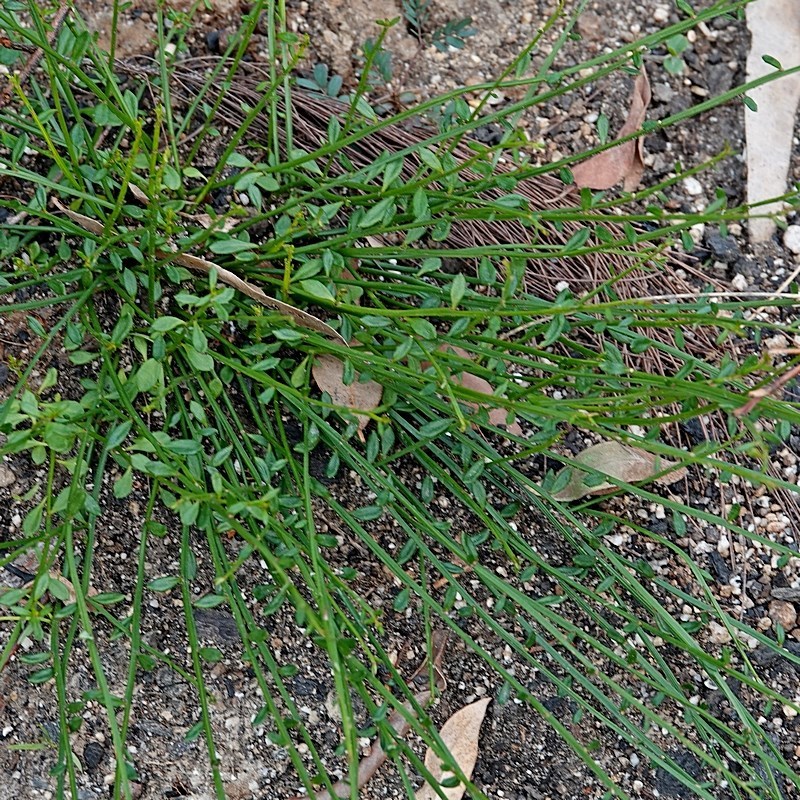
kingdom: Plantae
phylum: Tracheophyta
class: Magnoliopsida
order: Malpighiales
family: Euphorbiaceae
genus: Amperea
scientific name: Amperea xiphoclada
